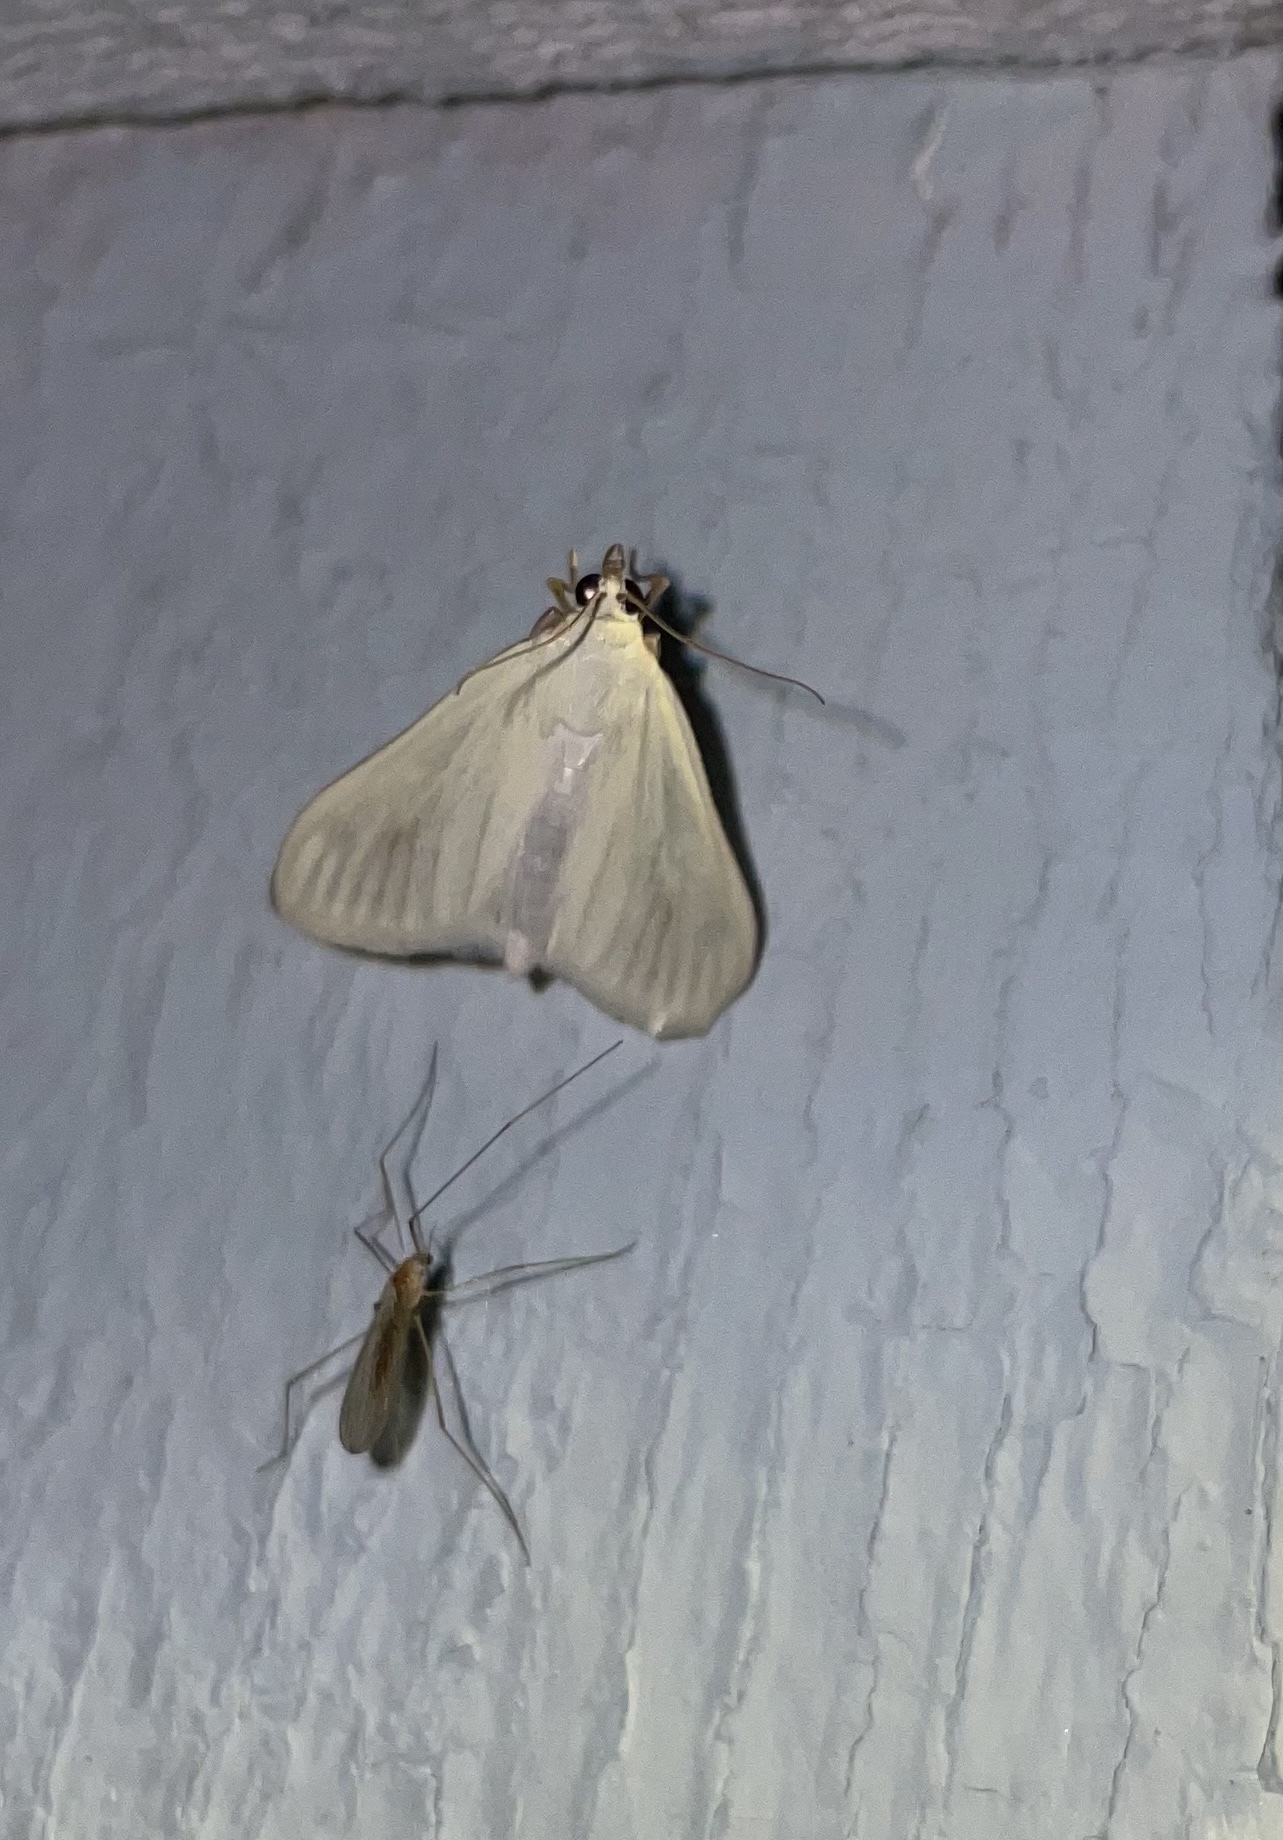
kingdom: Animalia
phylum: Arthropoda
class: Insecta
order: Lepidoptera
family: Crambidae
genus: Sitochroa
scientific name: Sitochroa palealis
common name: Greenish-yellow sitochroa moth
